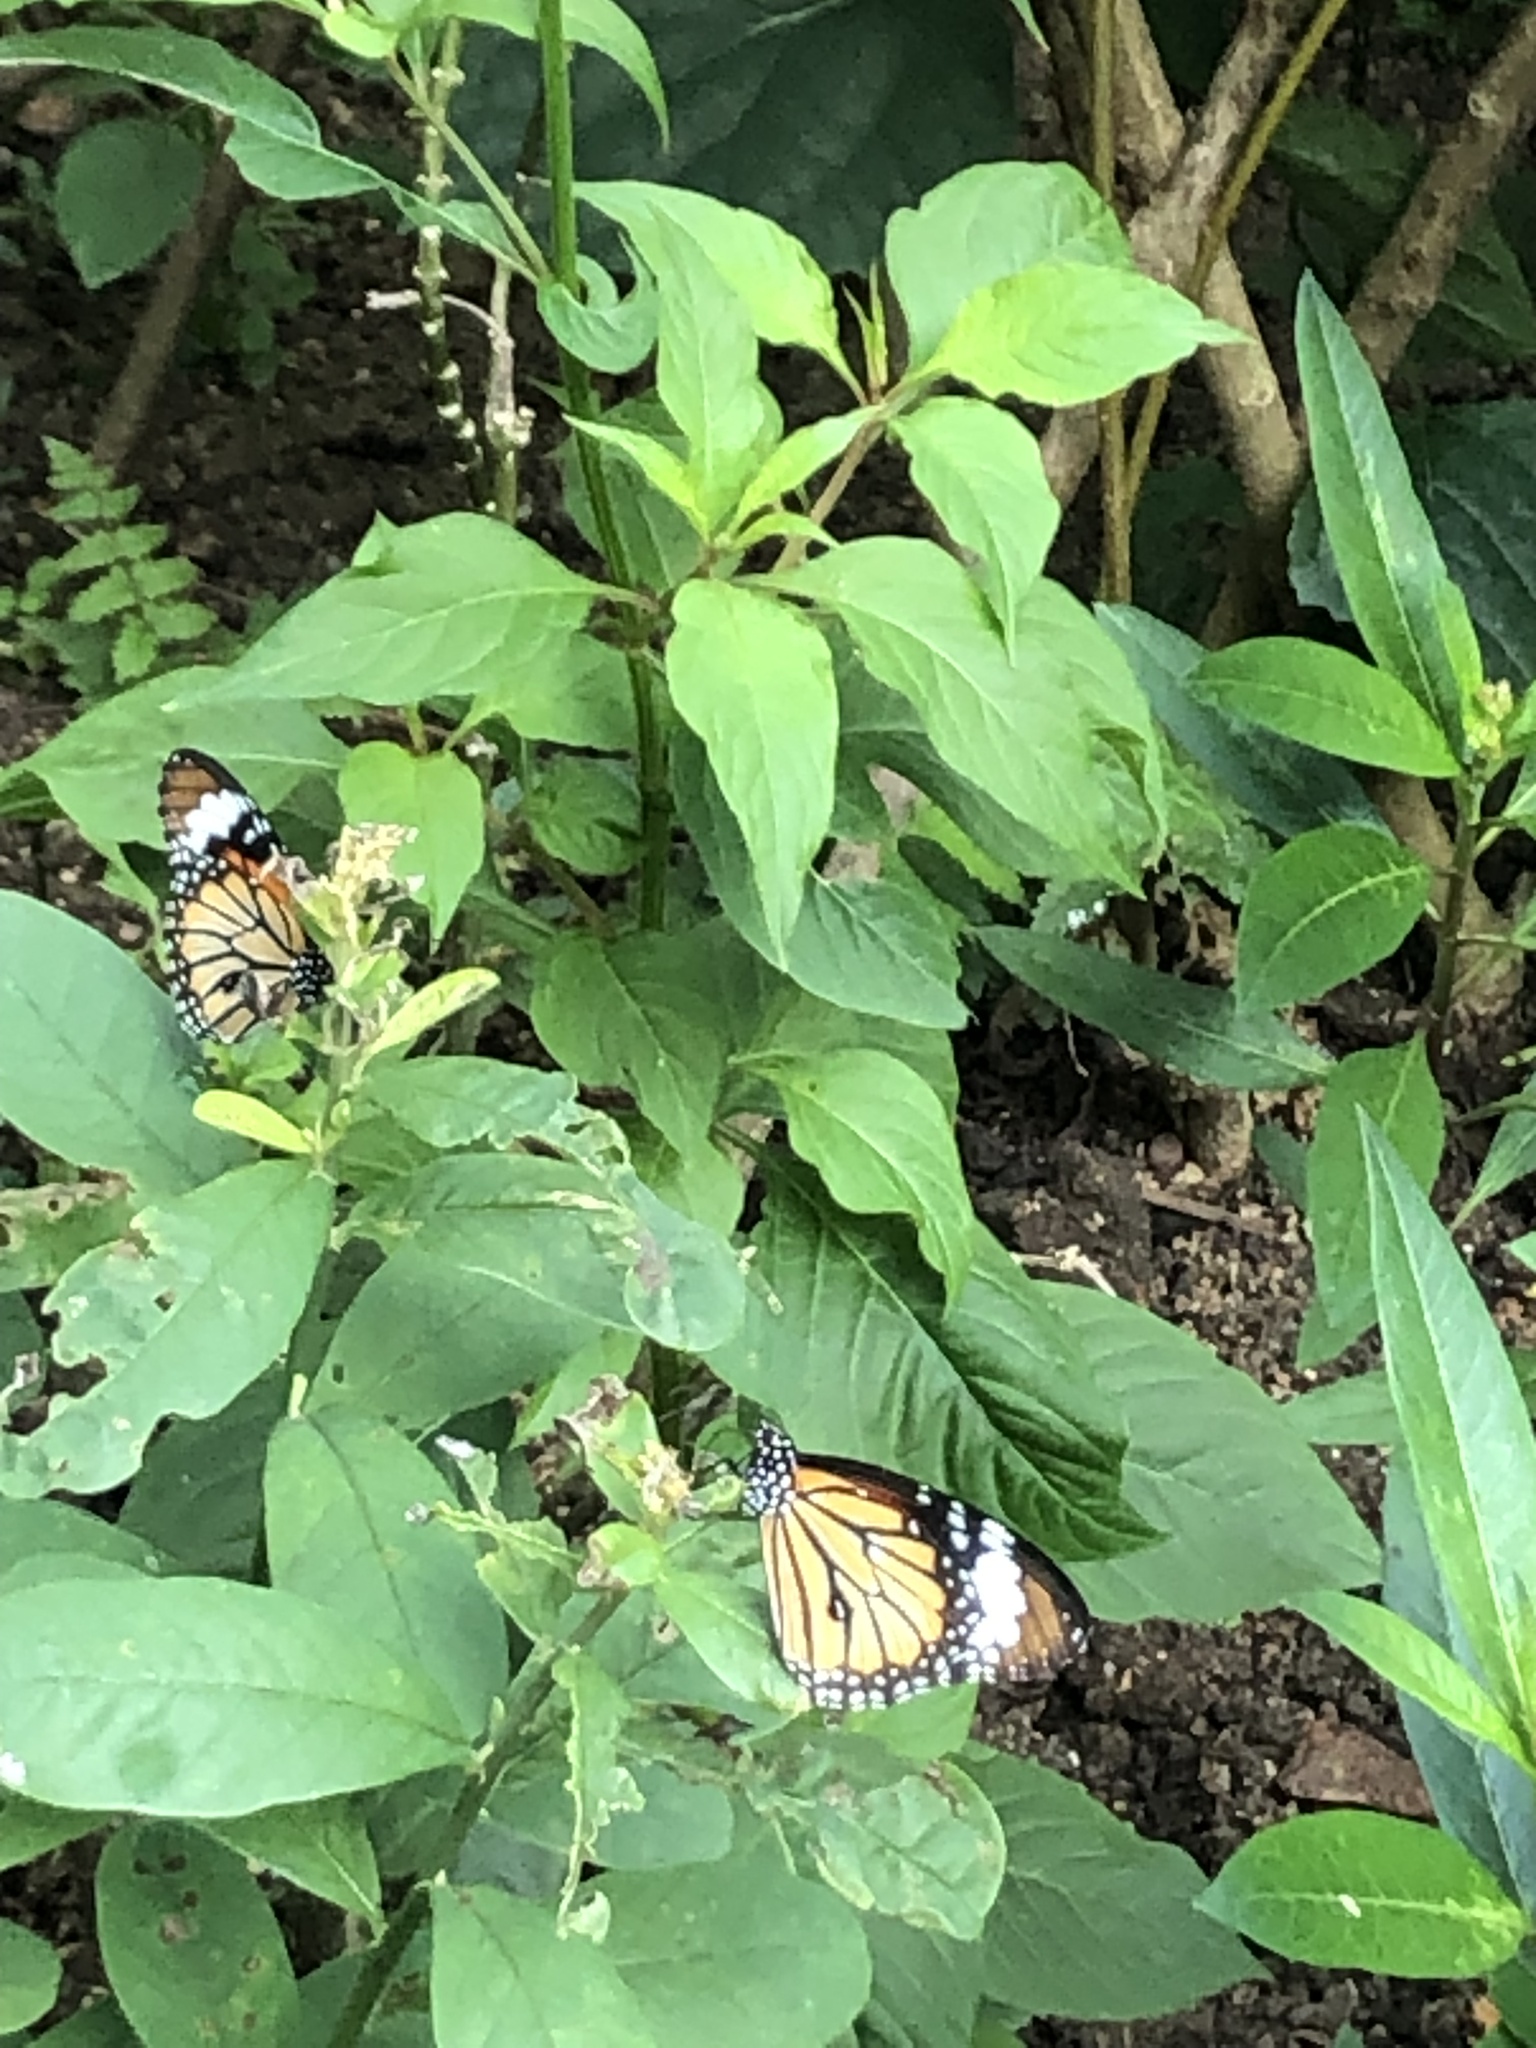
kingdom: Animalia
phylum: Arthropoda
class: Insecta
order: Lepidoptera
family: Nymphalidae
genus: Danaus
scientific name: Danaus genutia
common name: Common tiger butterfly
